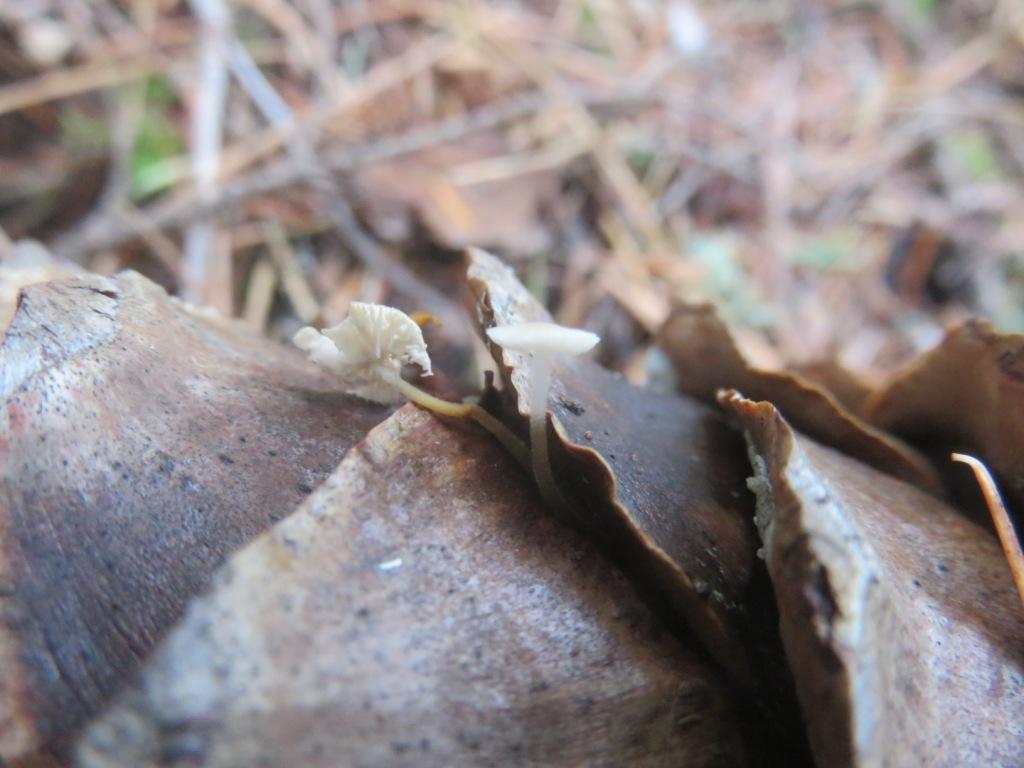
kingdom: Fungi
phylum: Basidiomycota
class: Agaricomycetes
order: Agaricales
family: Physalacriaceae
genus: Strobilurus
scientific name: Strobilurus diminutivus
